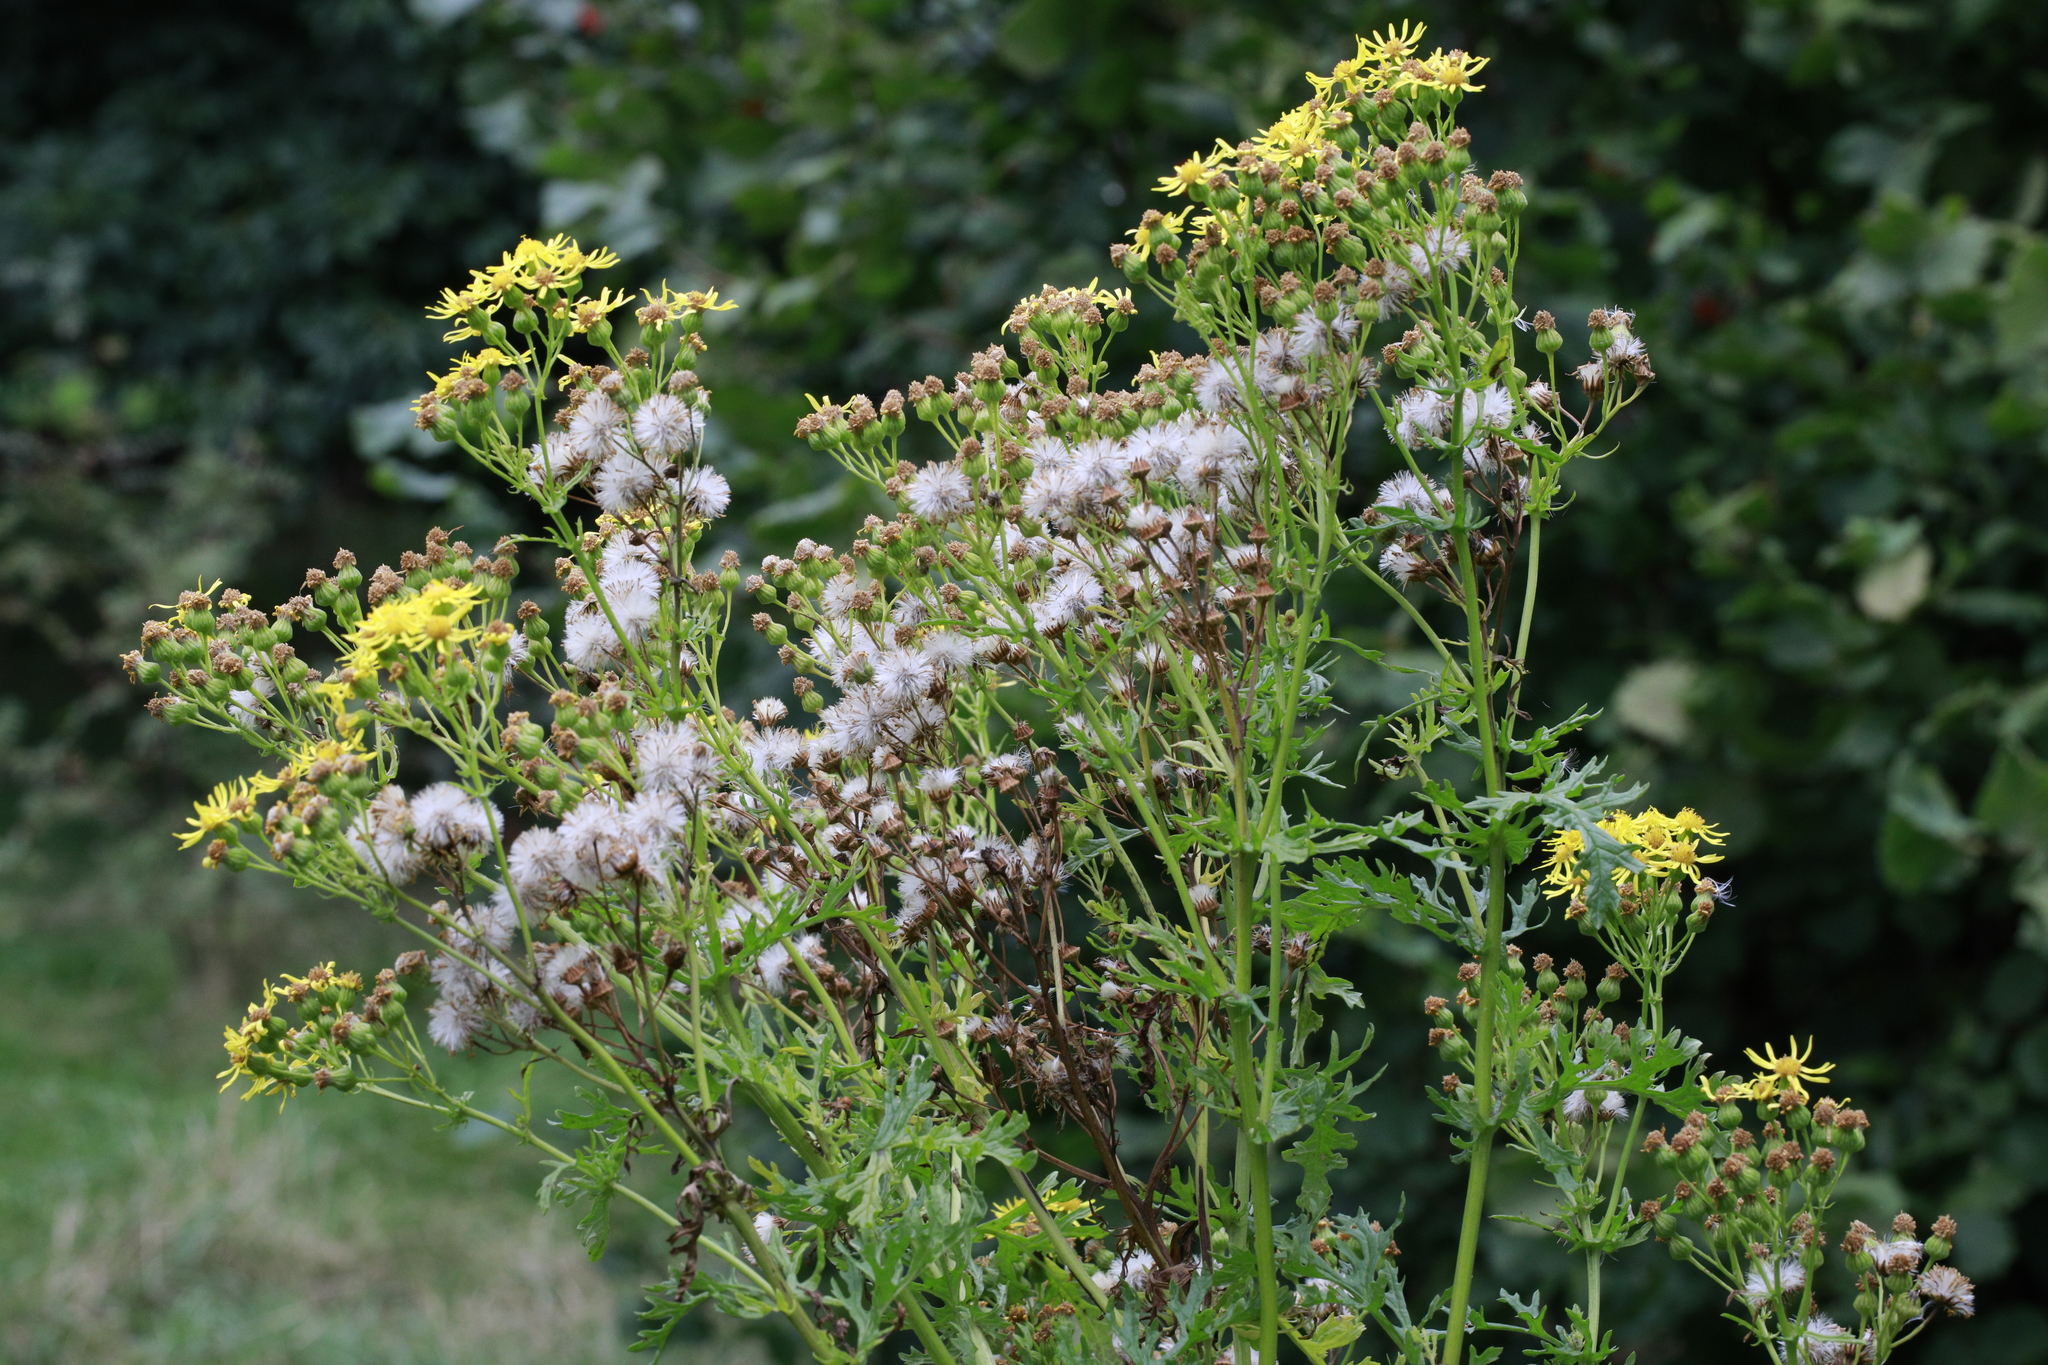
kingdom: Plantae
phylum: Tracheophyta
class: Magnoliopsida
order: Asterales
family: Asteraceae
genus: Jacobaea
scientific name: Jacobaea vulgaris
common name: Stinking willie
